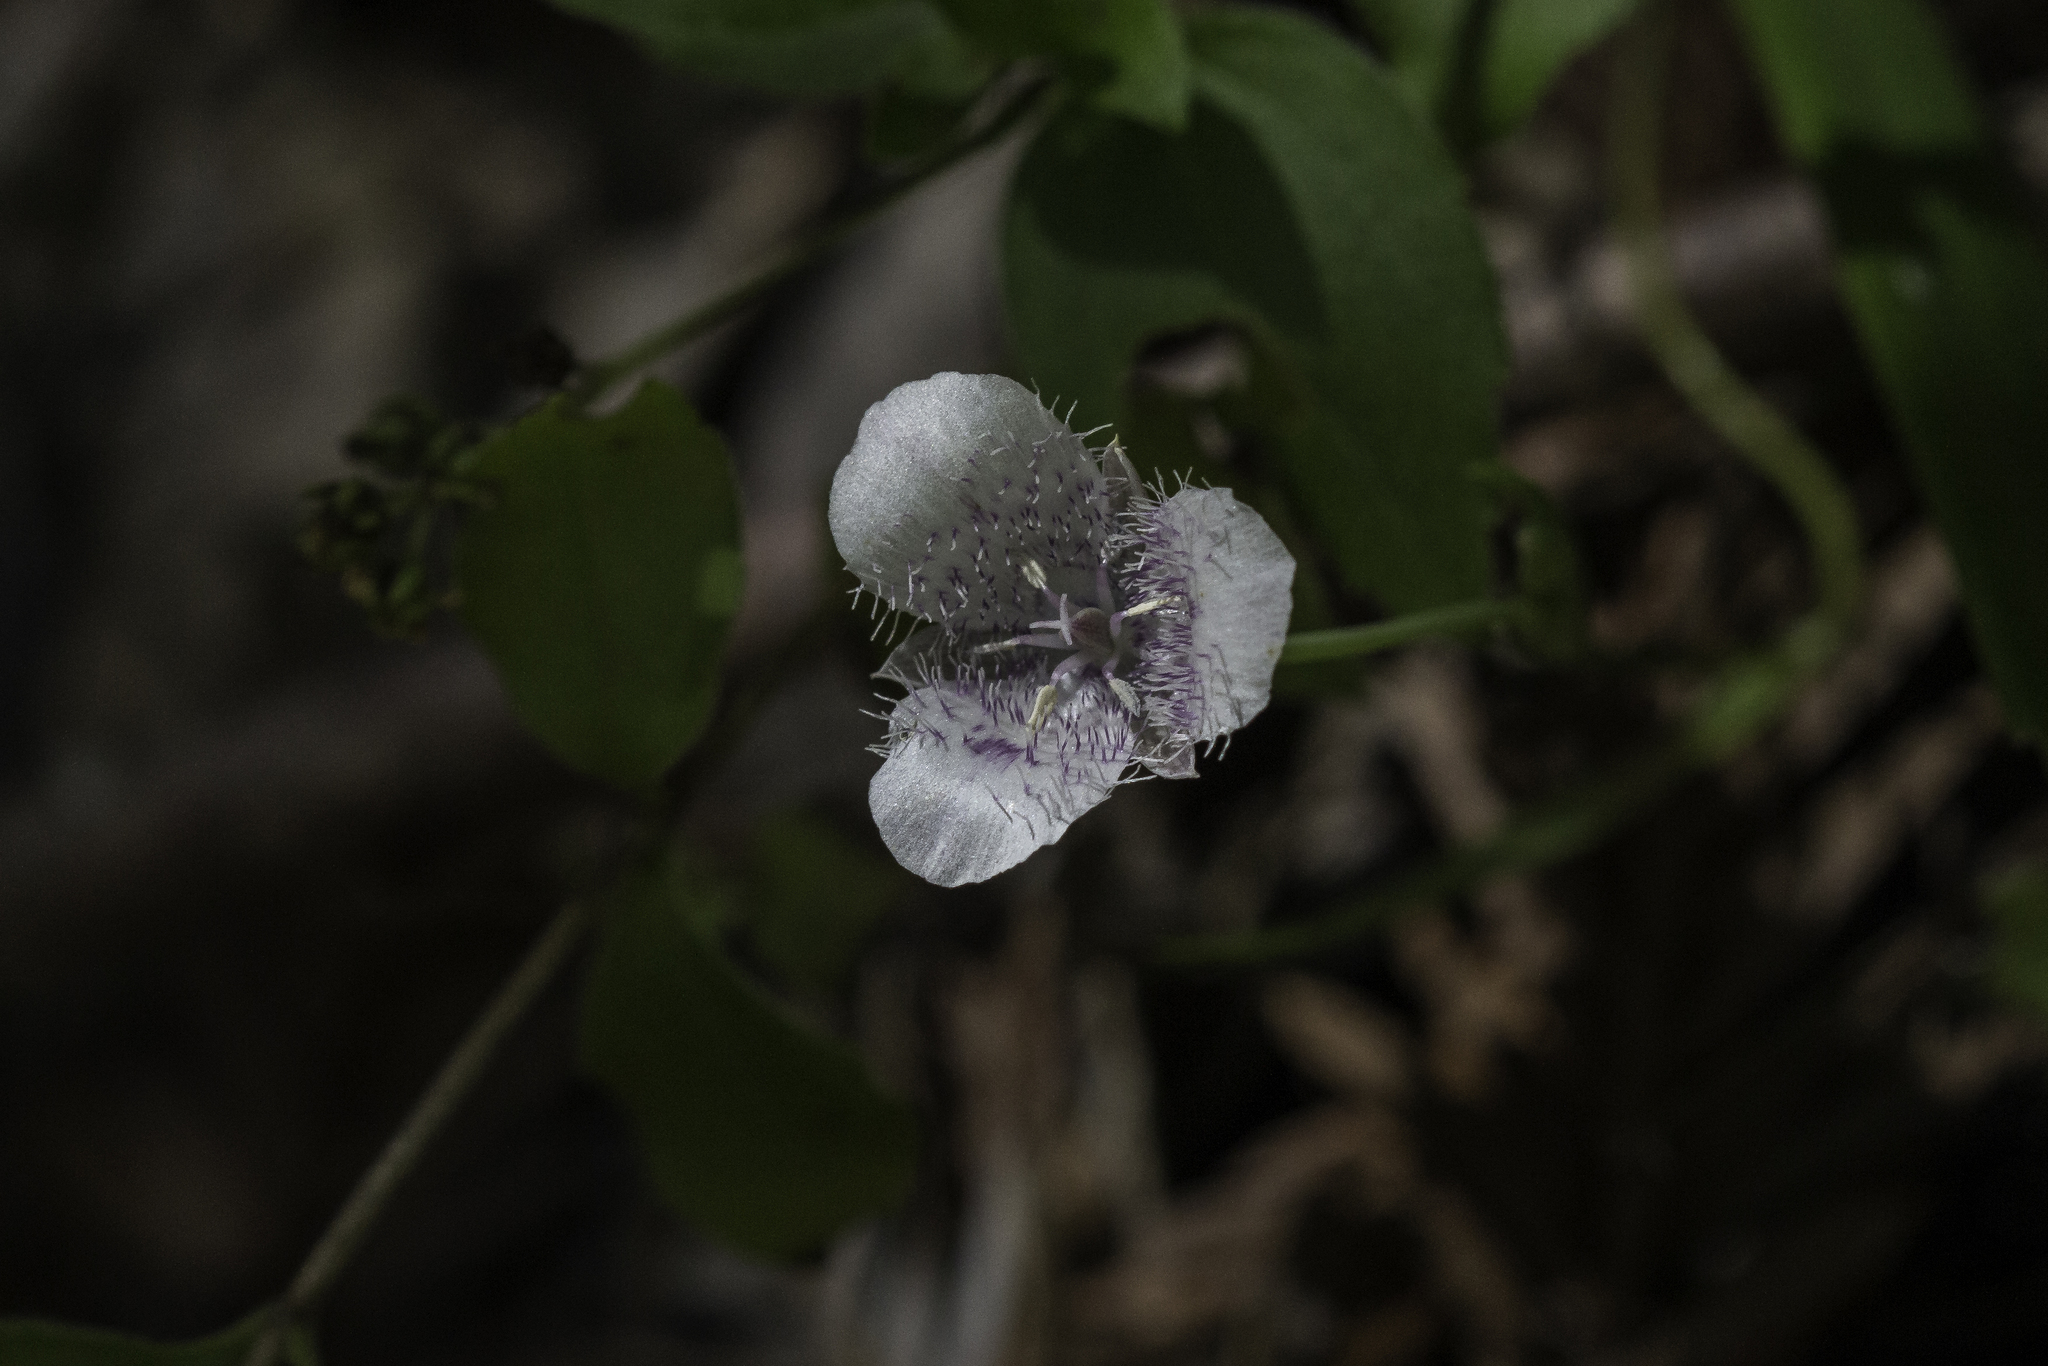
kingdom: Plantae
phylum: Tracheophyta
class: Liliopsida
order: Liliales
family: Liliaceae
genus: Calochortus
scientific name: Calochortus tolmiei
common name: Pussy-ears
